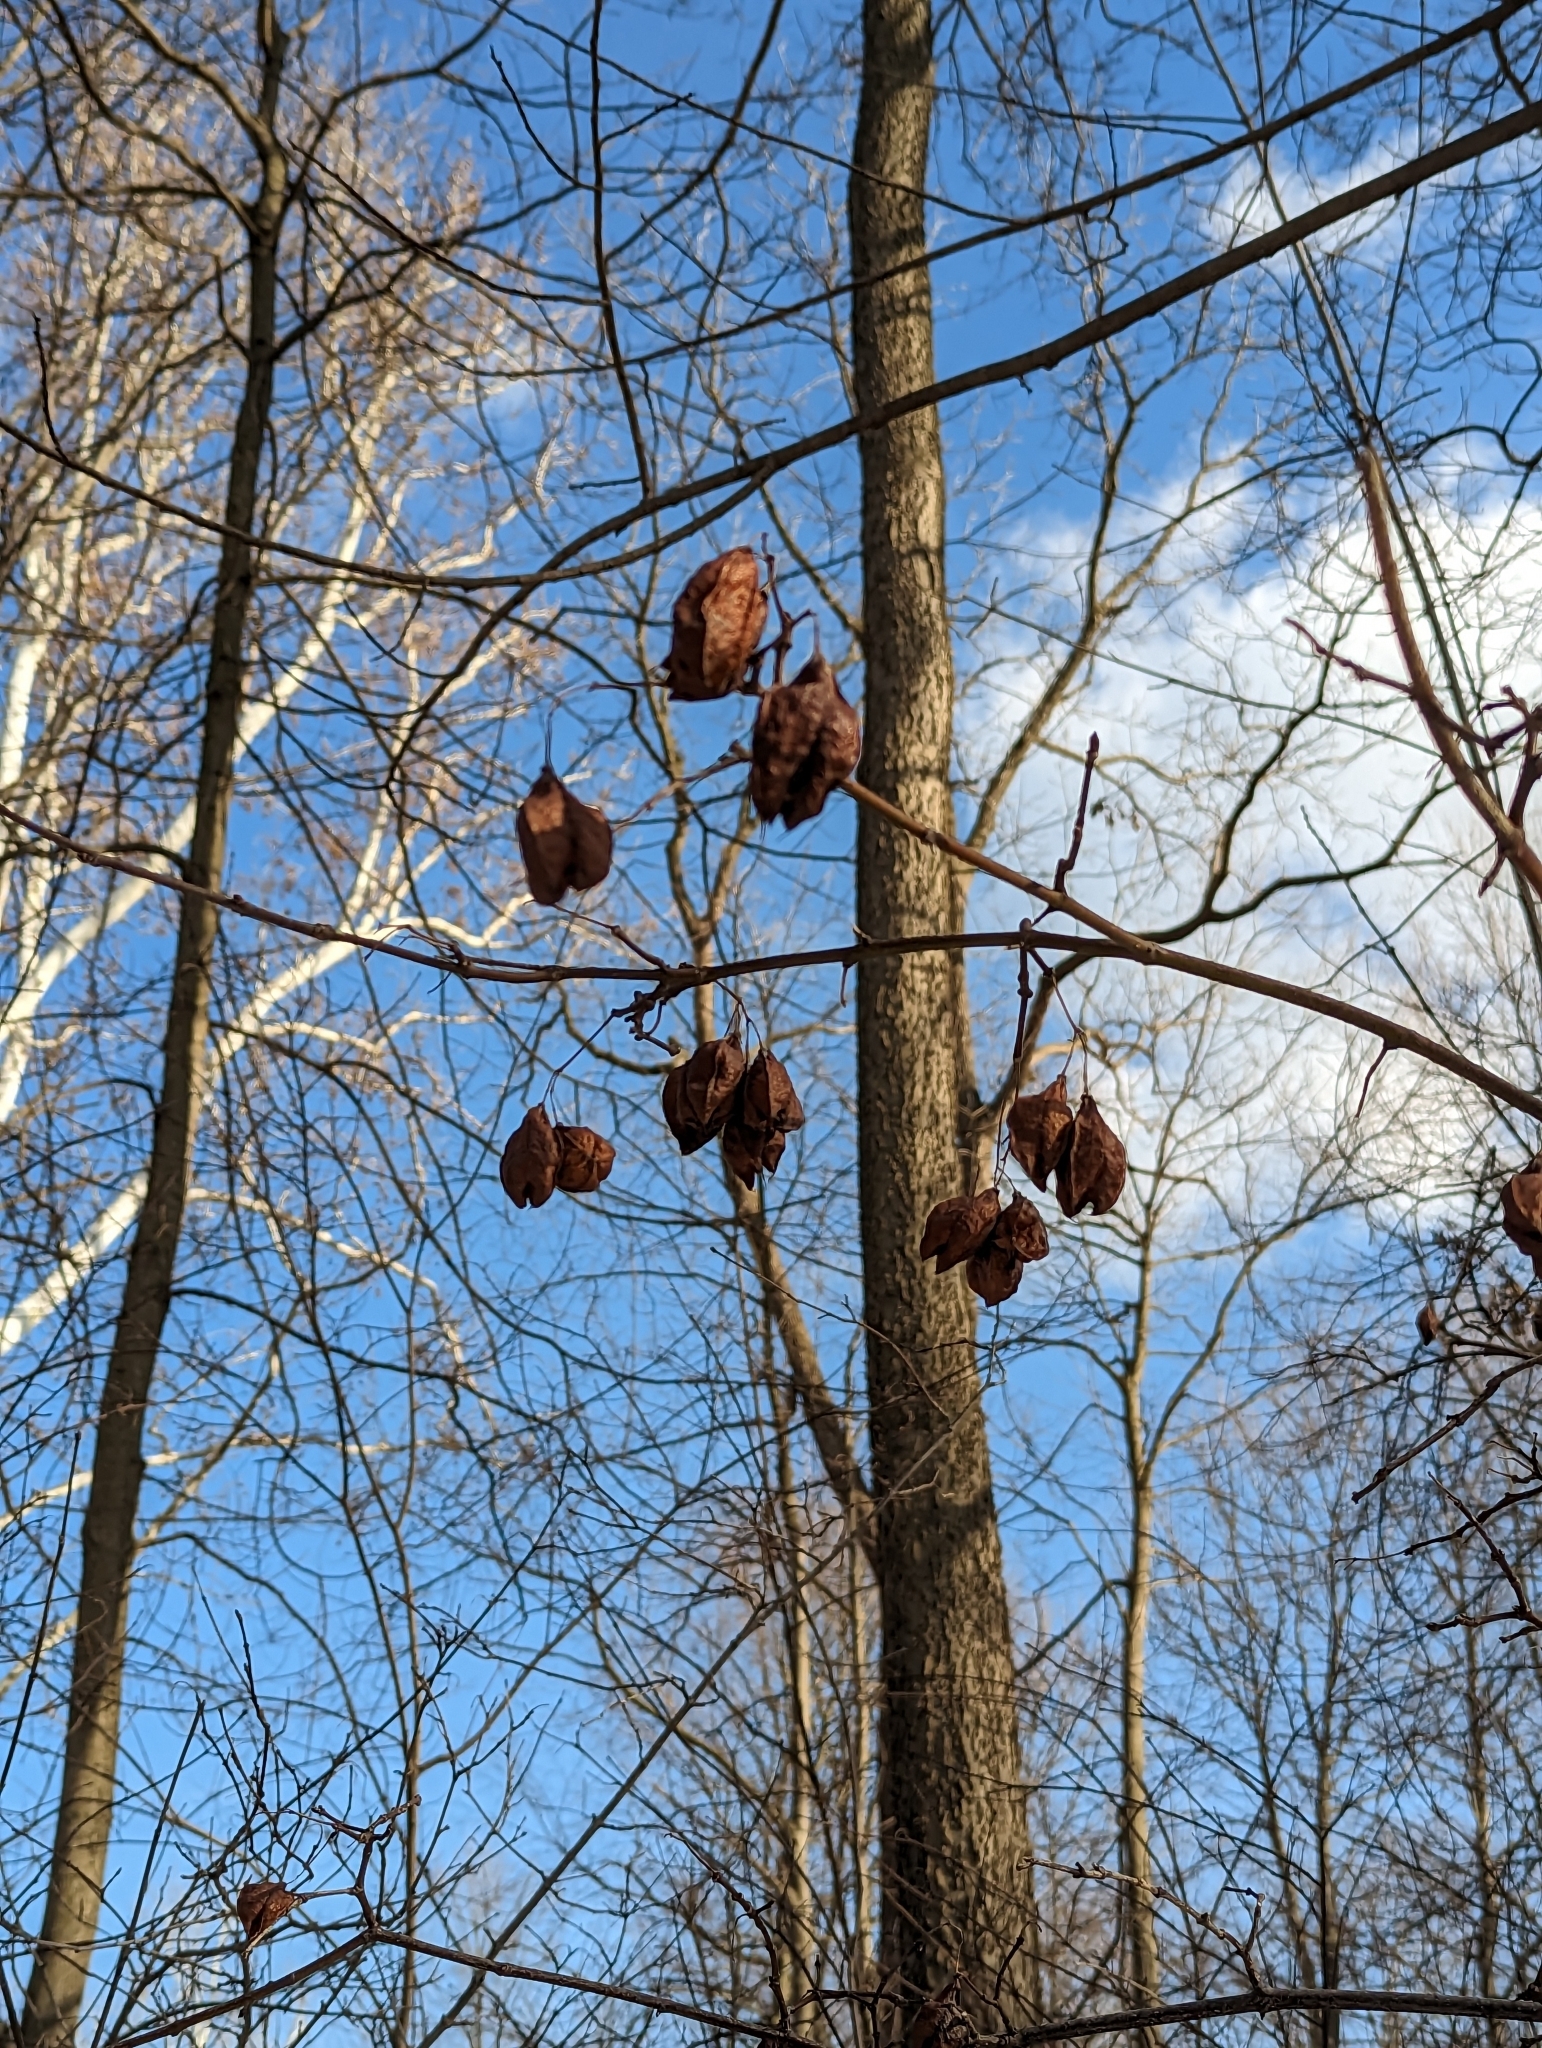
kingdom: Plantae
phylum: Tracheophyta
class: Magnoliopsida
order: Crossosomatales
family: Staphyleaceae
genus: Staphylea
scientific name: Staphylea trifolia
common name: American bladdernut
